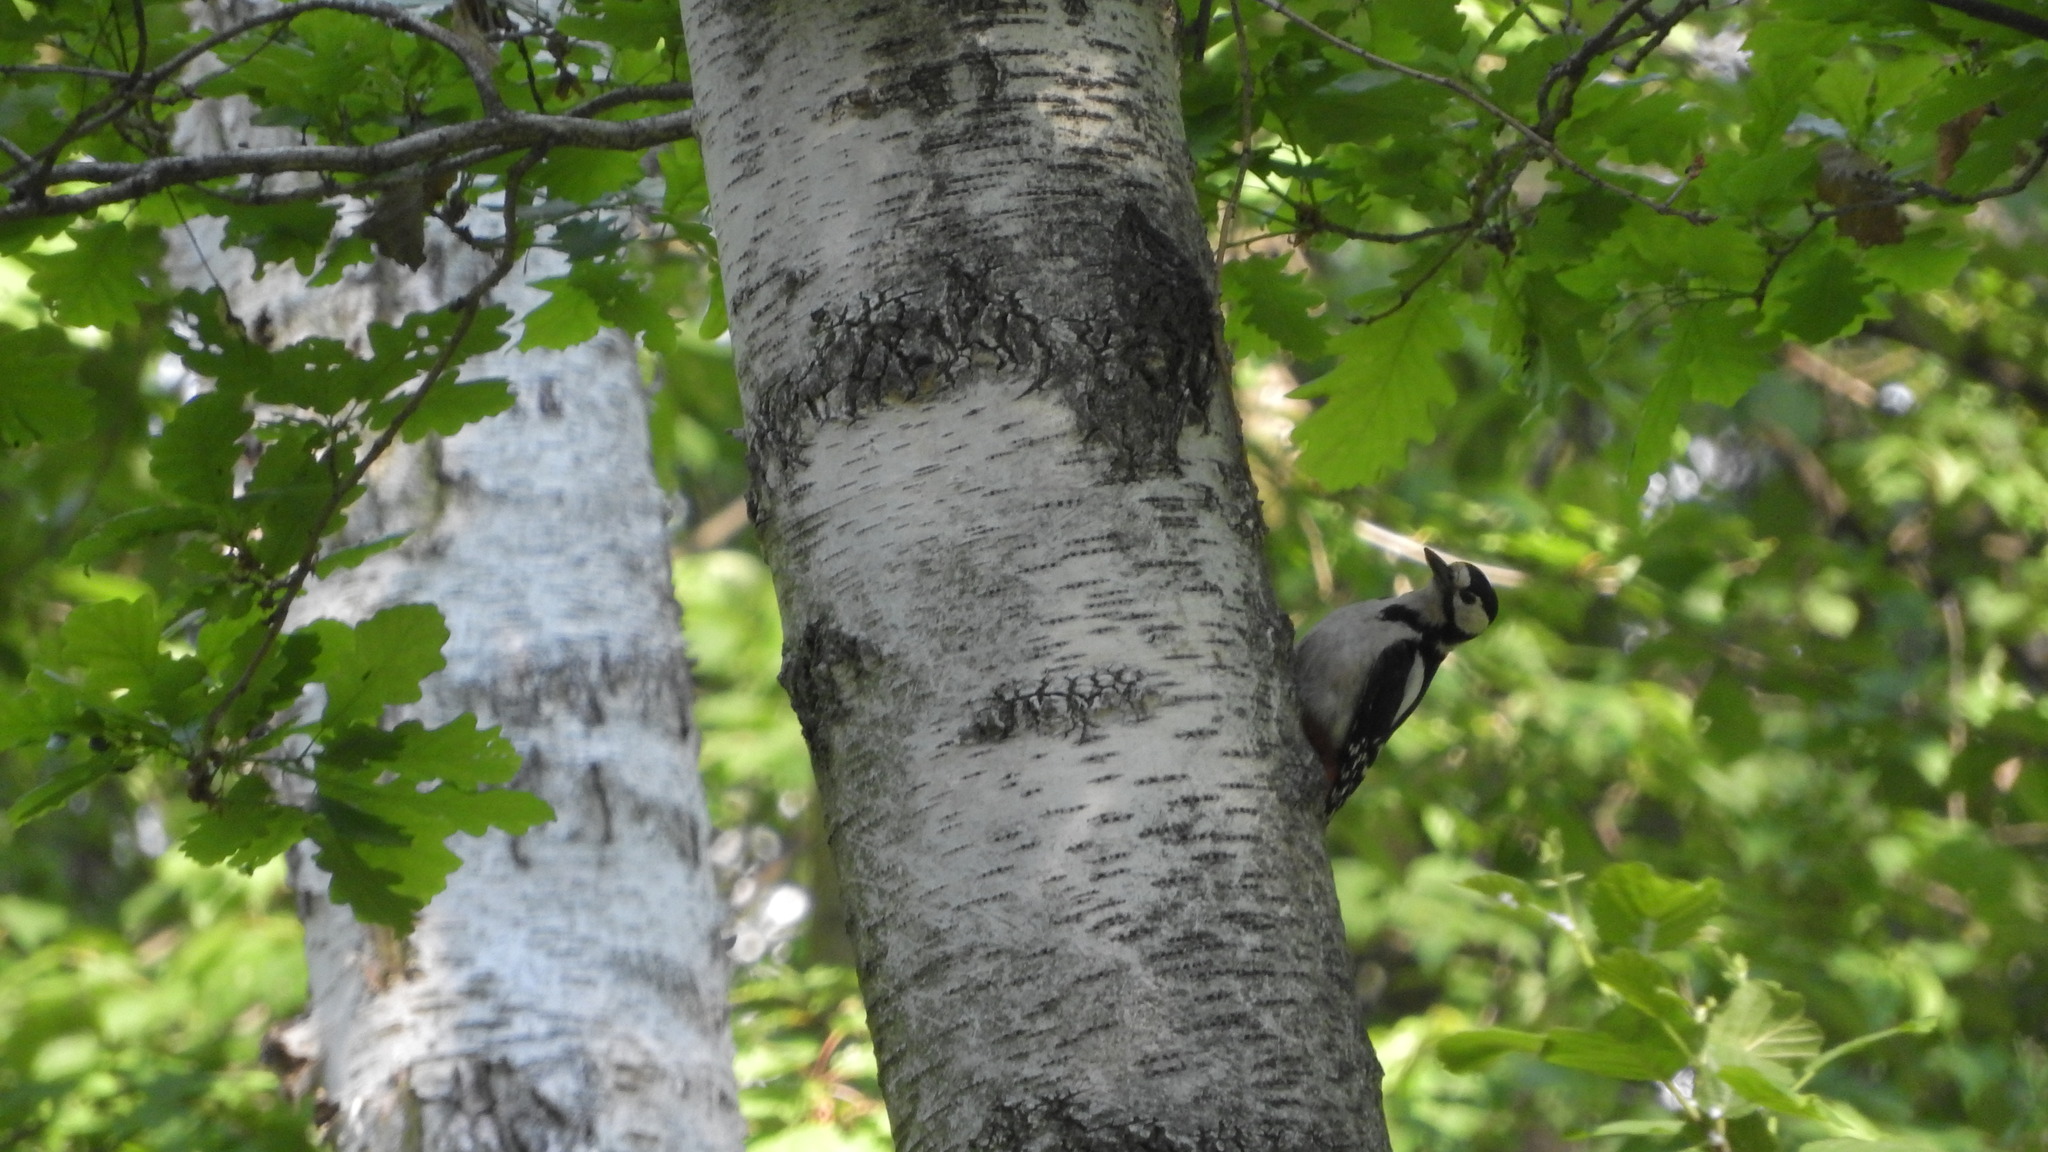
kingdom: Animalia
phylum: Chordata
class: Aves
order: Piciformes
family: Picidae
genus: Dendrocopos
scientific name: Dendrocopos major
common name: Great spotted woodpecker
